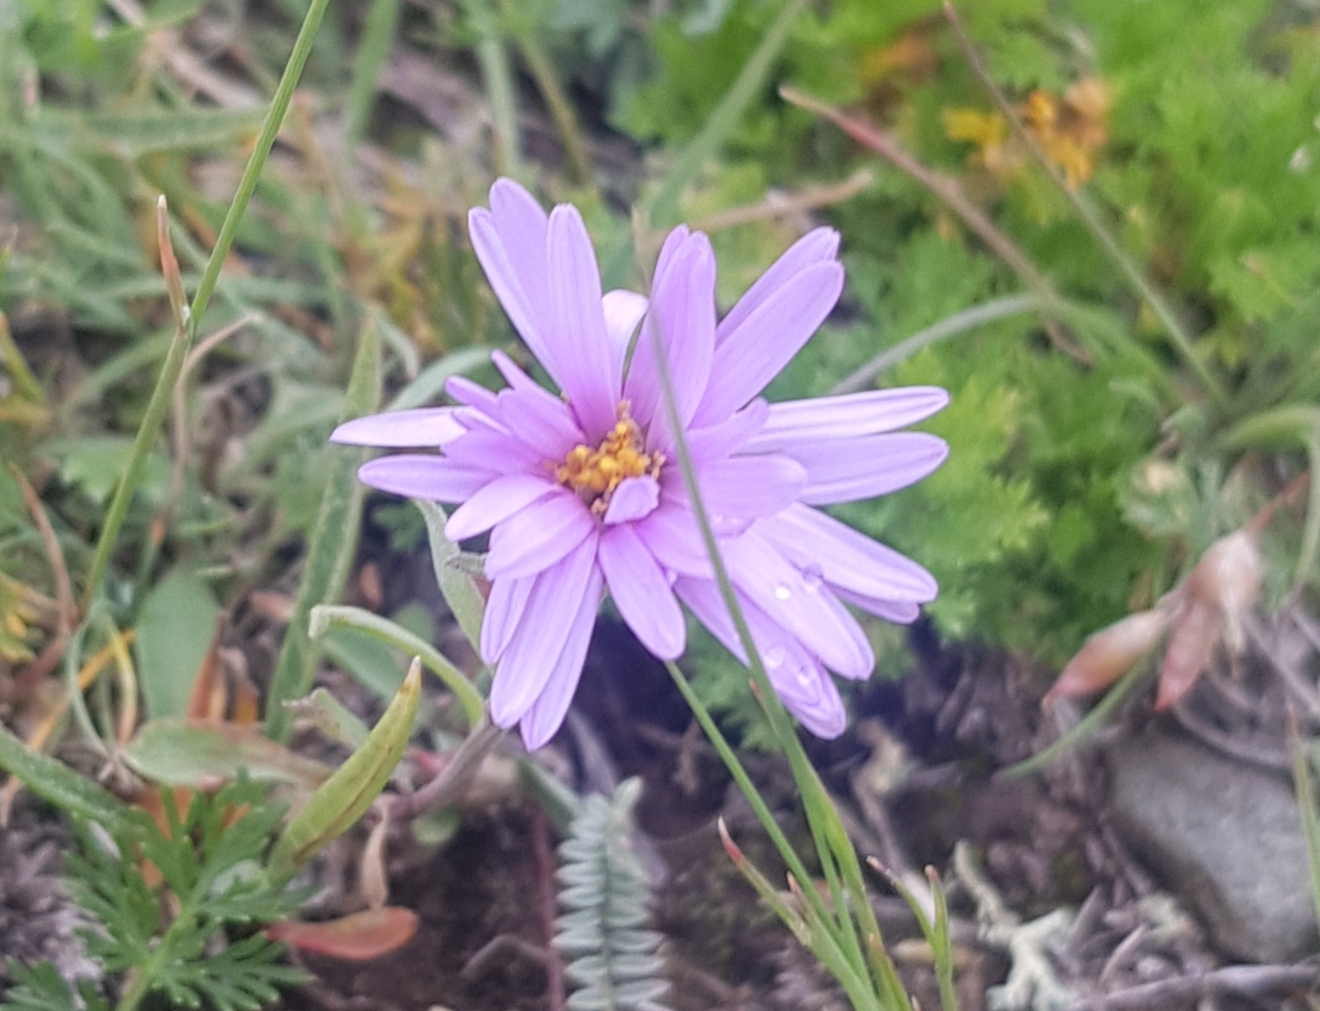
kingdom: Plantae
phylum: Tracheophyta
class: Magnoliopsida
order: Asterales
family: Asteraceae
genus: Aster
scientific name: Aster alpinus
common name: Alpine aster
